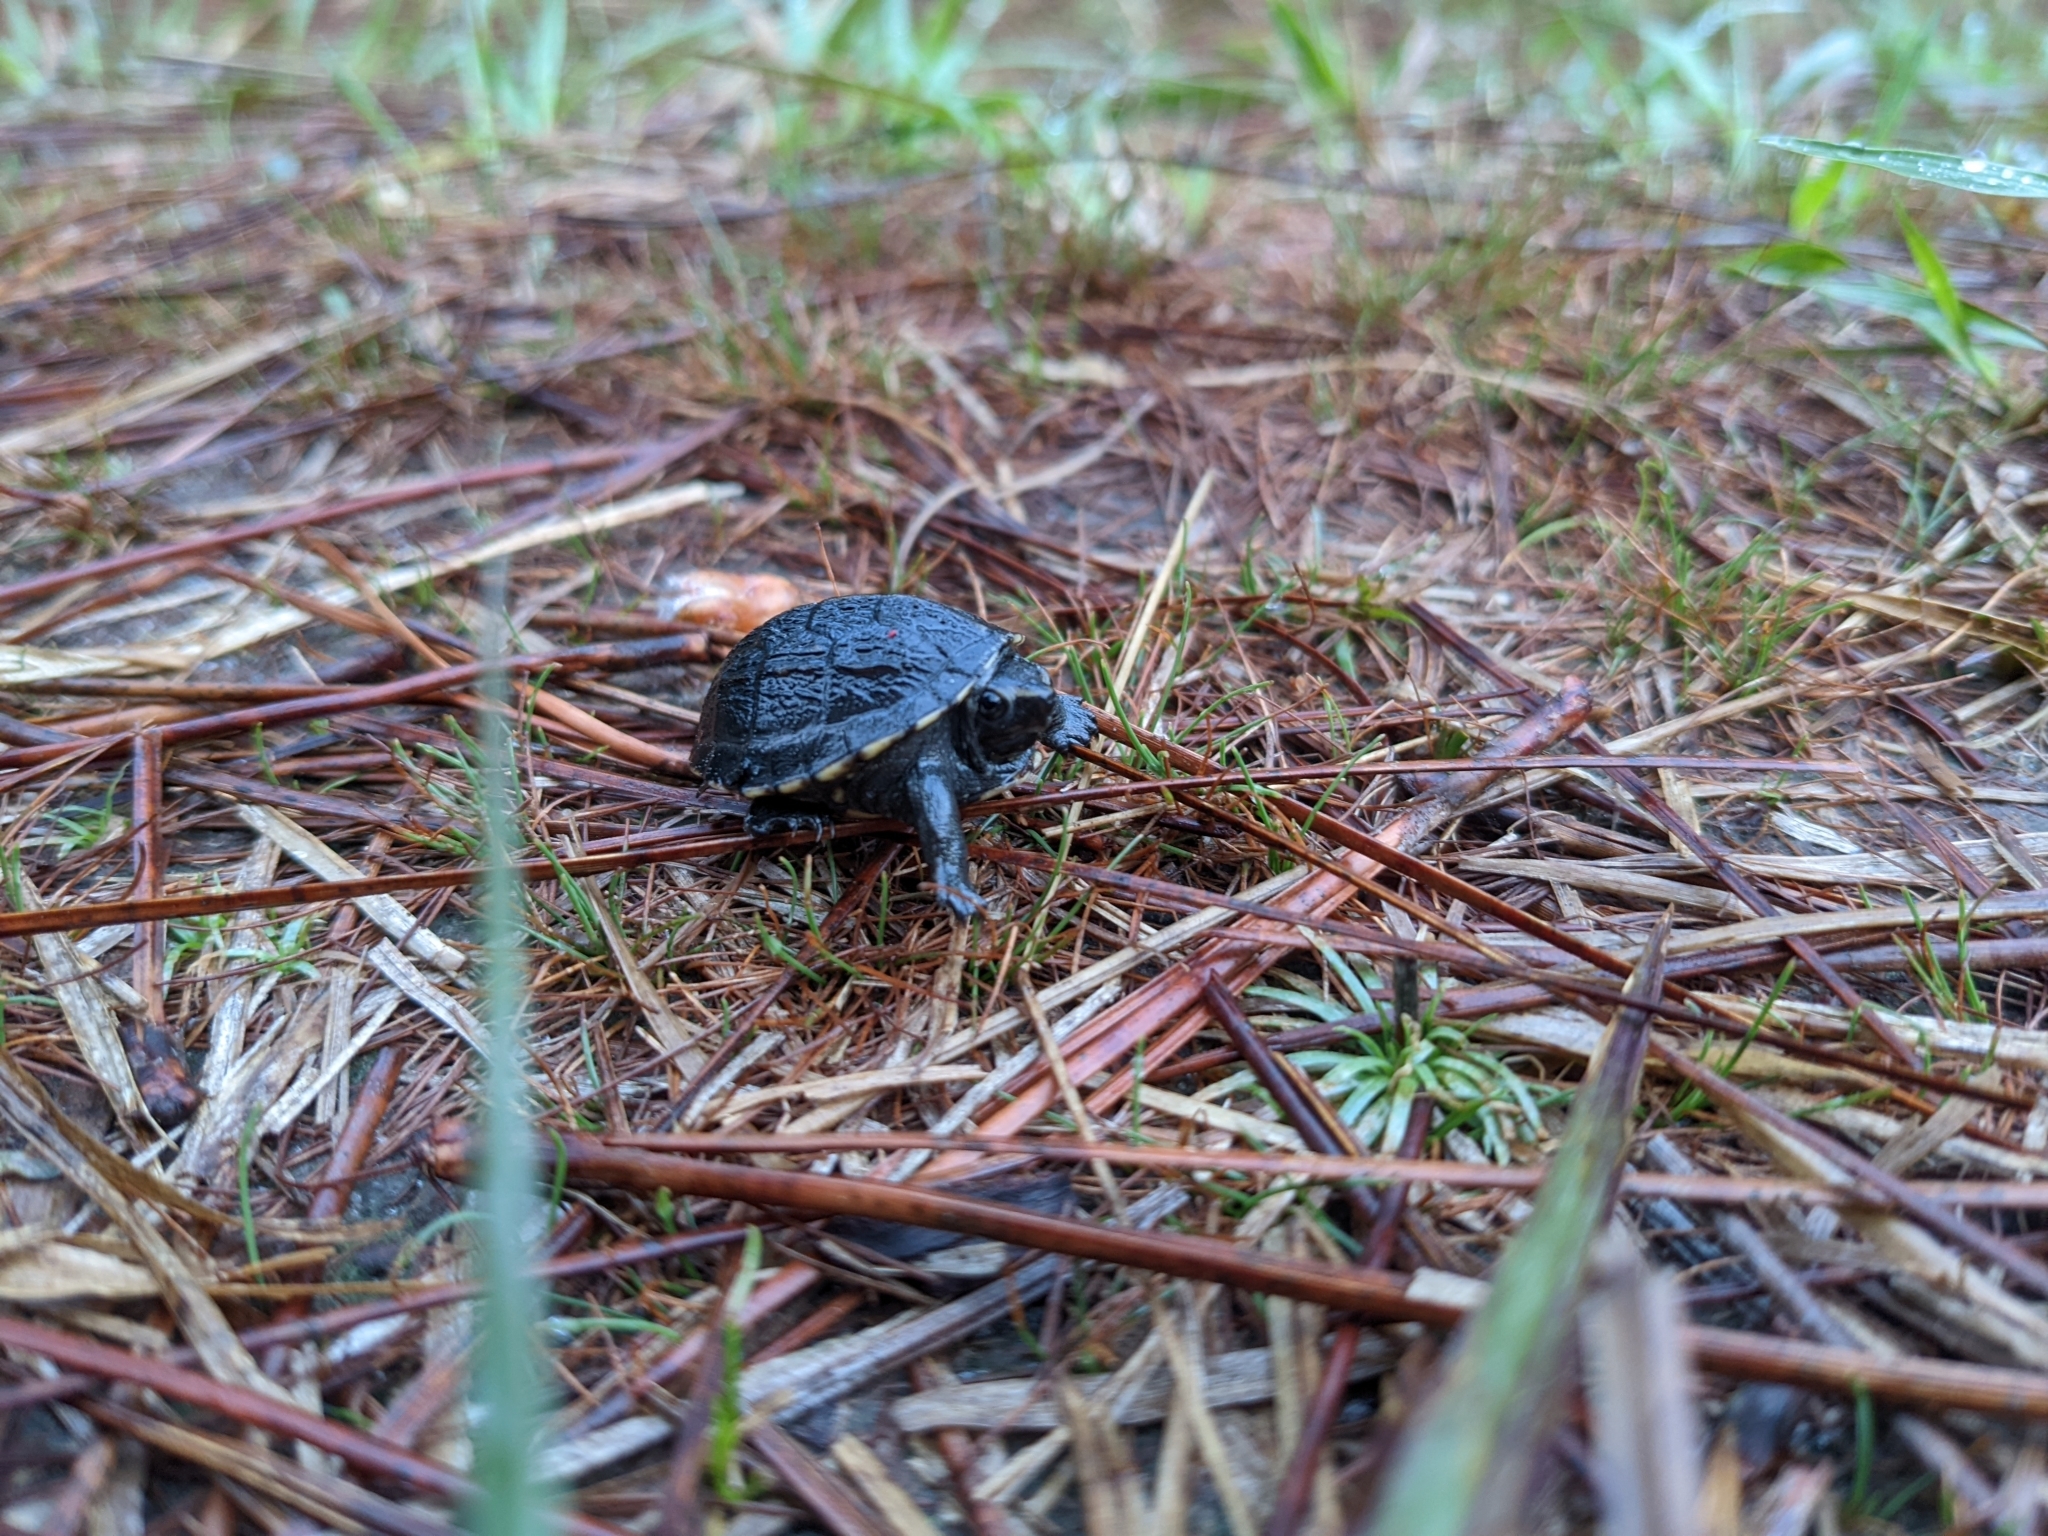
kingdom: Animalia
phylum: Chordata
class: Testudines
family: Kinosternidae
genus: Kinosternon
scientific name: Kinosternon baurii
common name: Striped mud turtle
